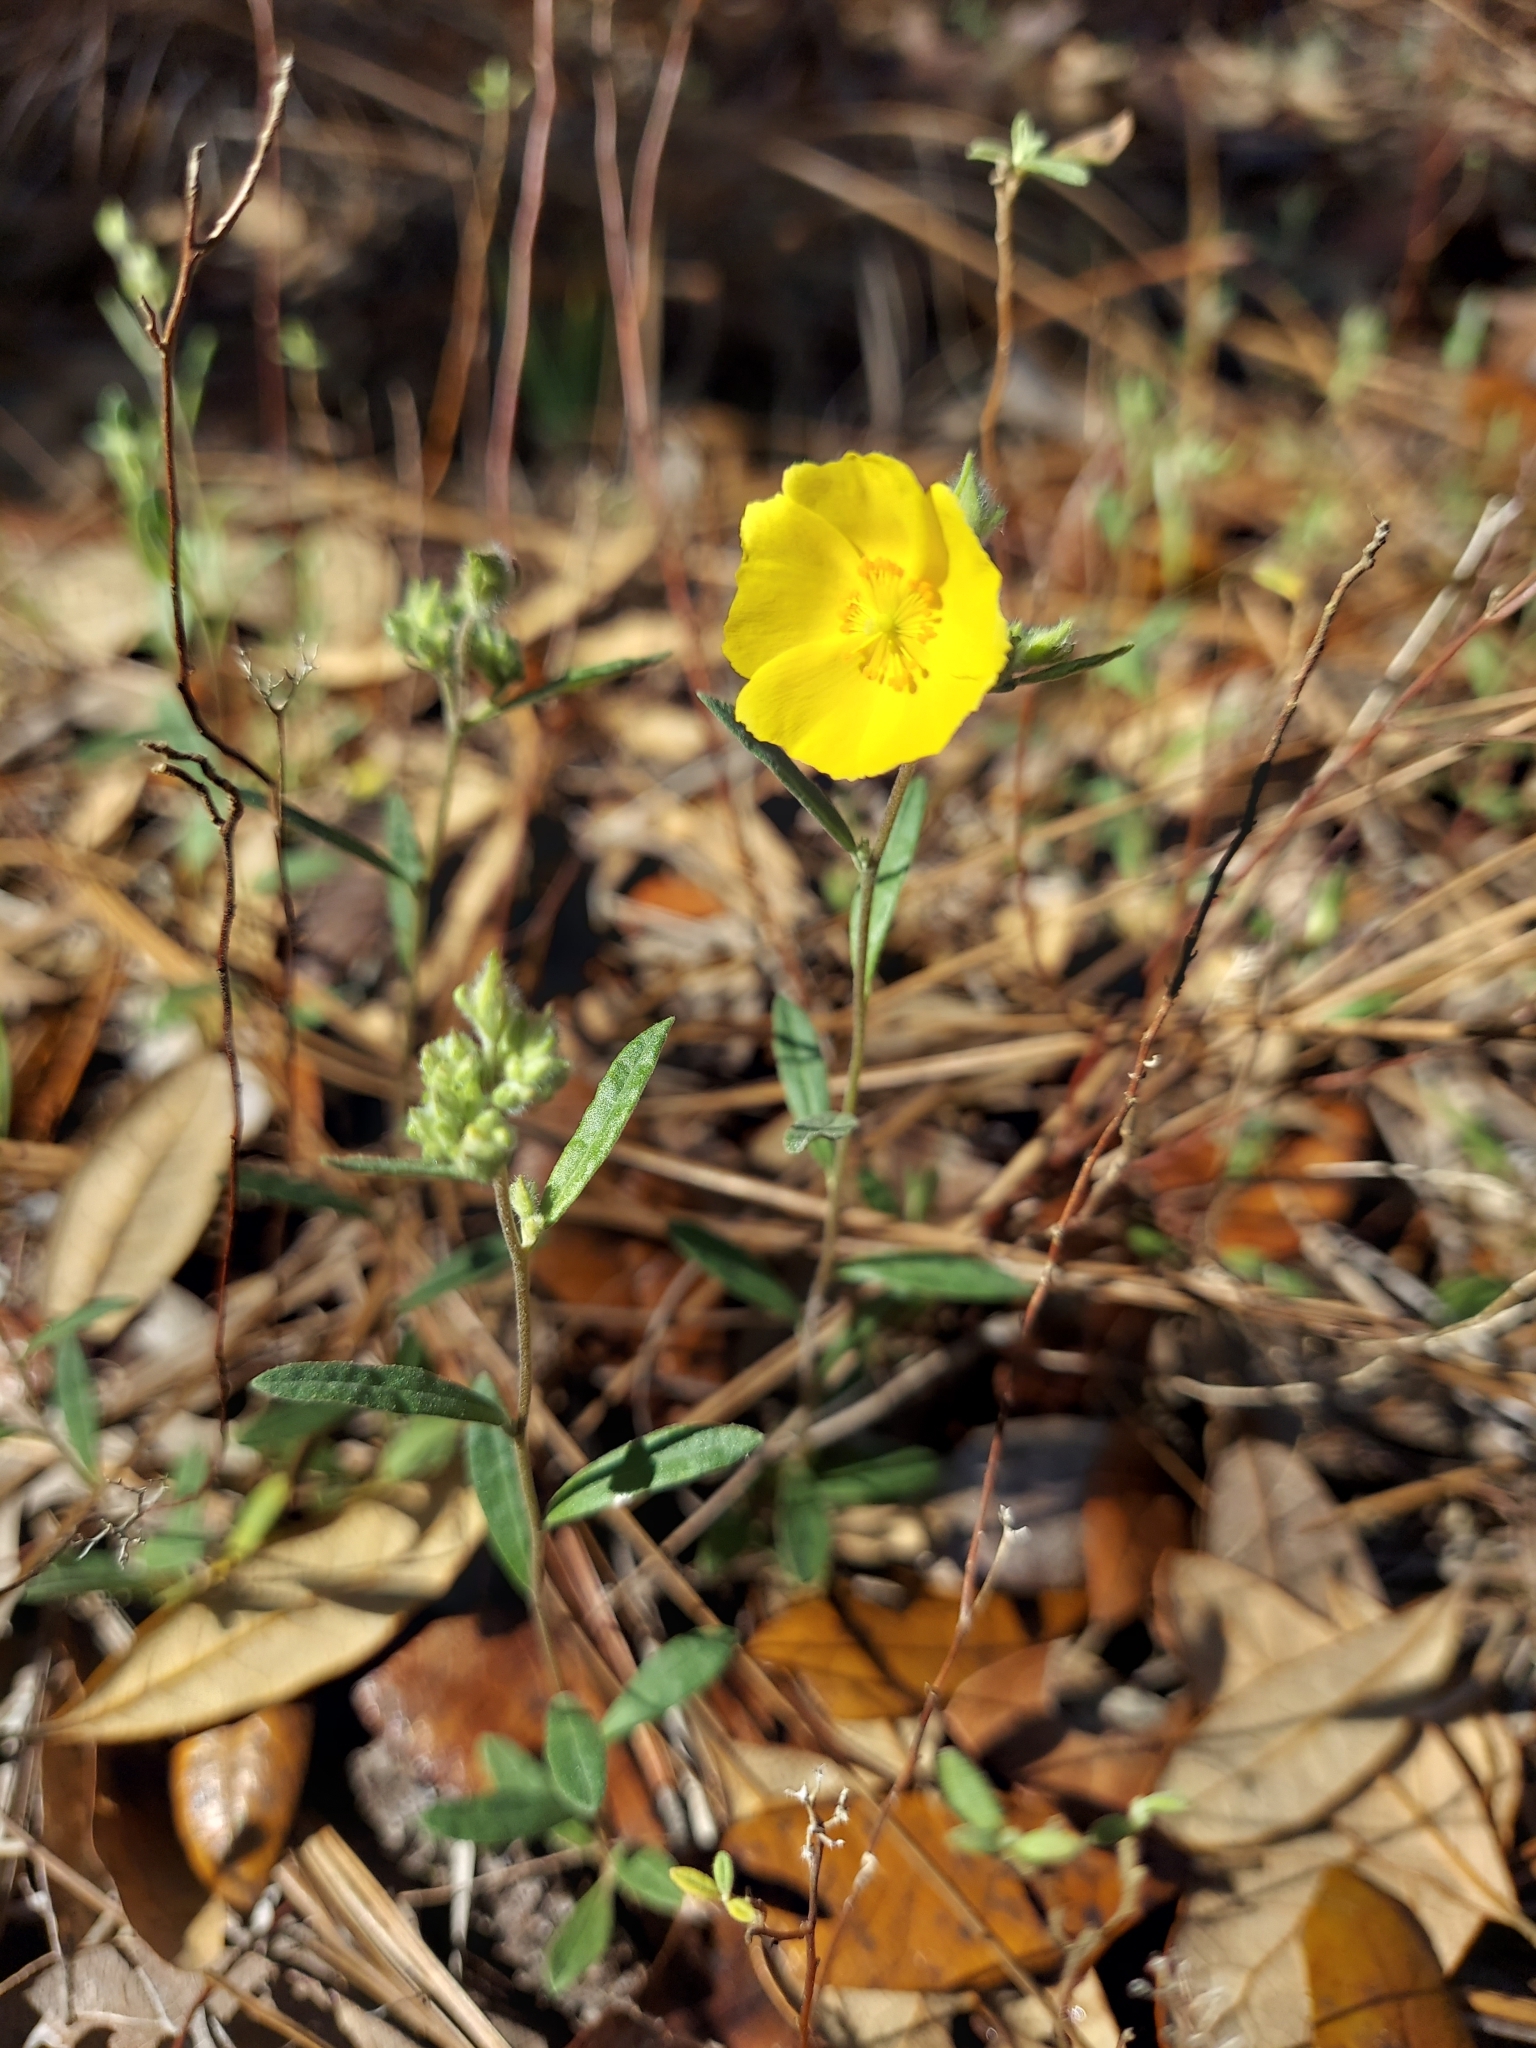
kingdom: Plantae
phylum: Tracheophyta
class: Magnoliopsida
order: Malvales
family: Cistaceae
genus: Crocanthemum
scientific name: Crocanthemum corymbosum
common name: Pinebarren sun-rose
